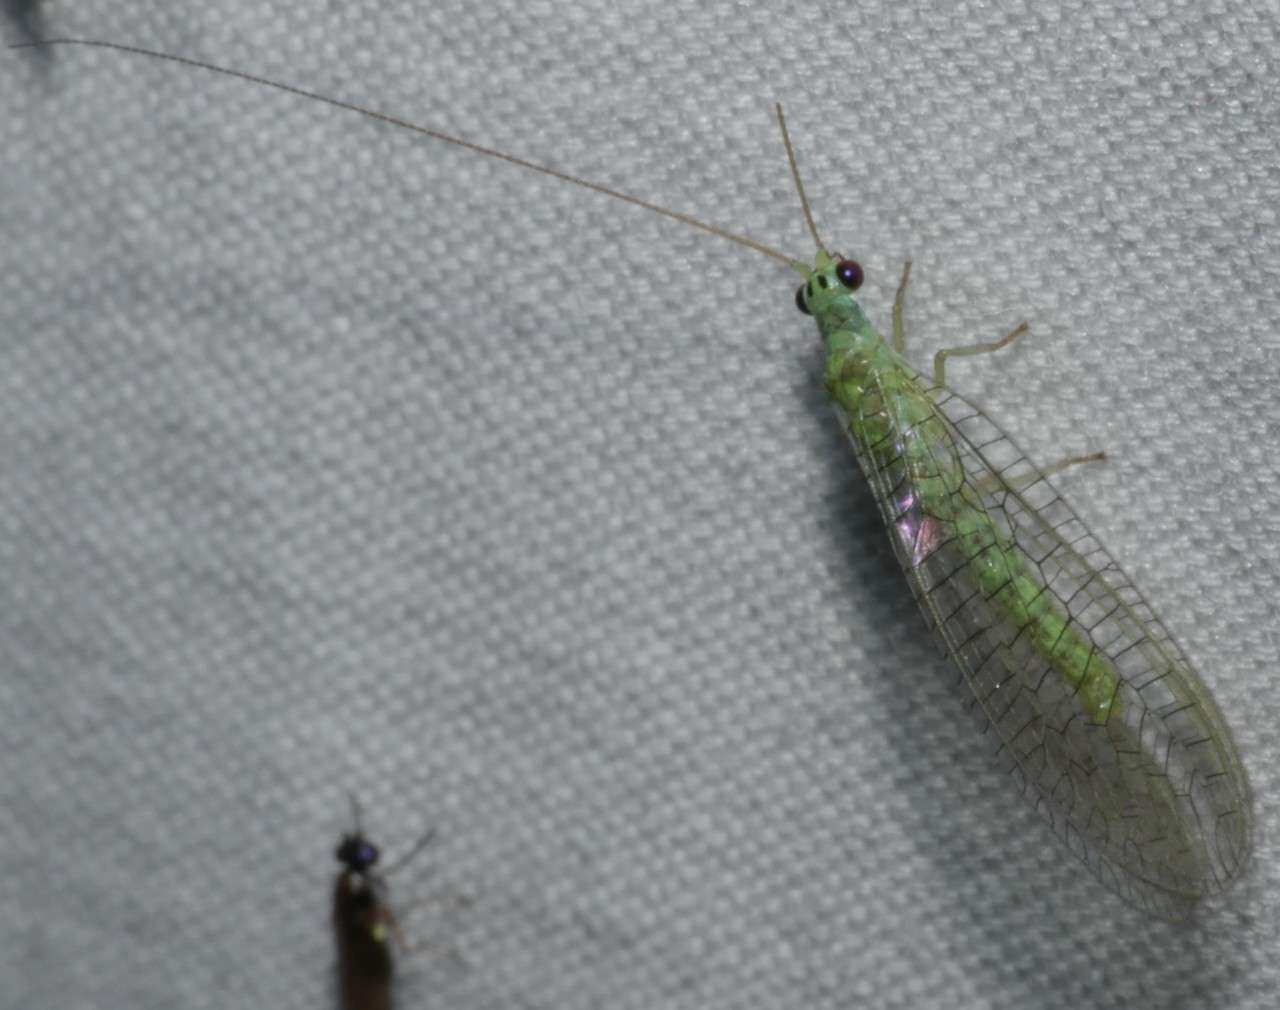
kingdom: Animalia
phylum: Arthropoda
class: Insecta
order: Neuroptera
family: Chrysopidae
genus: Mallada
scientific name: Mallada tripunctatus
